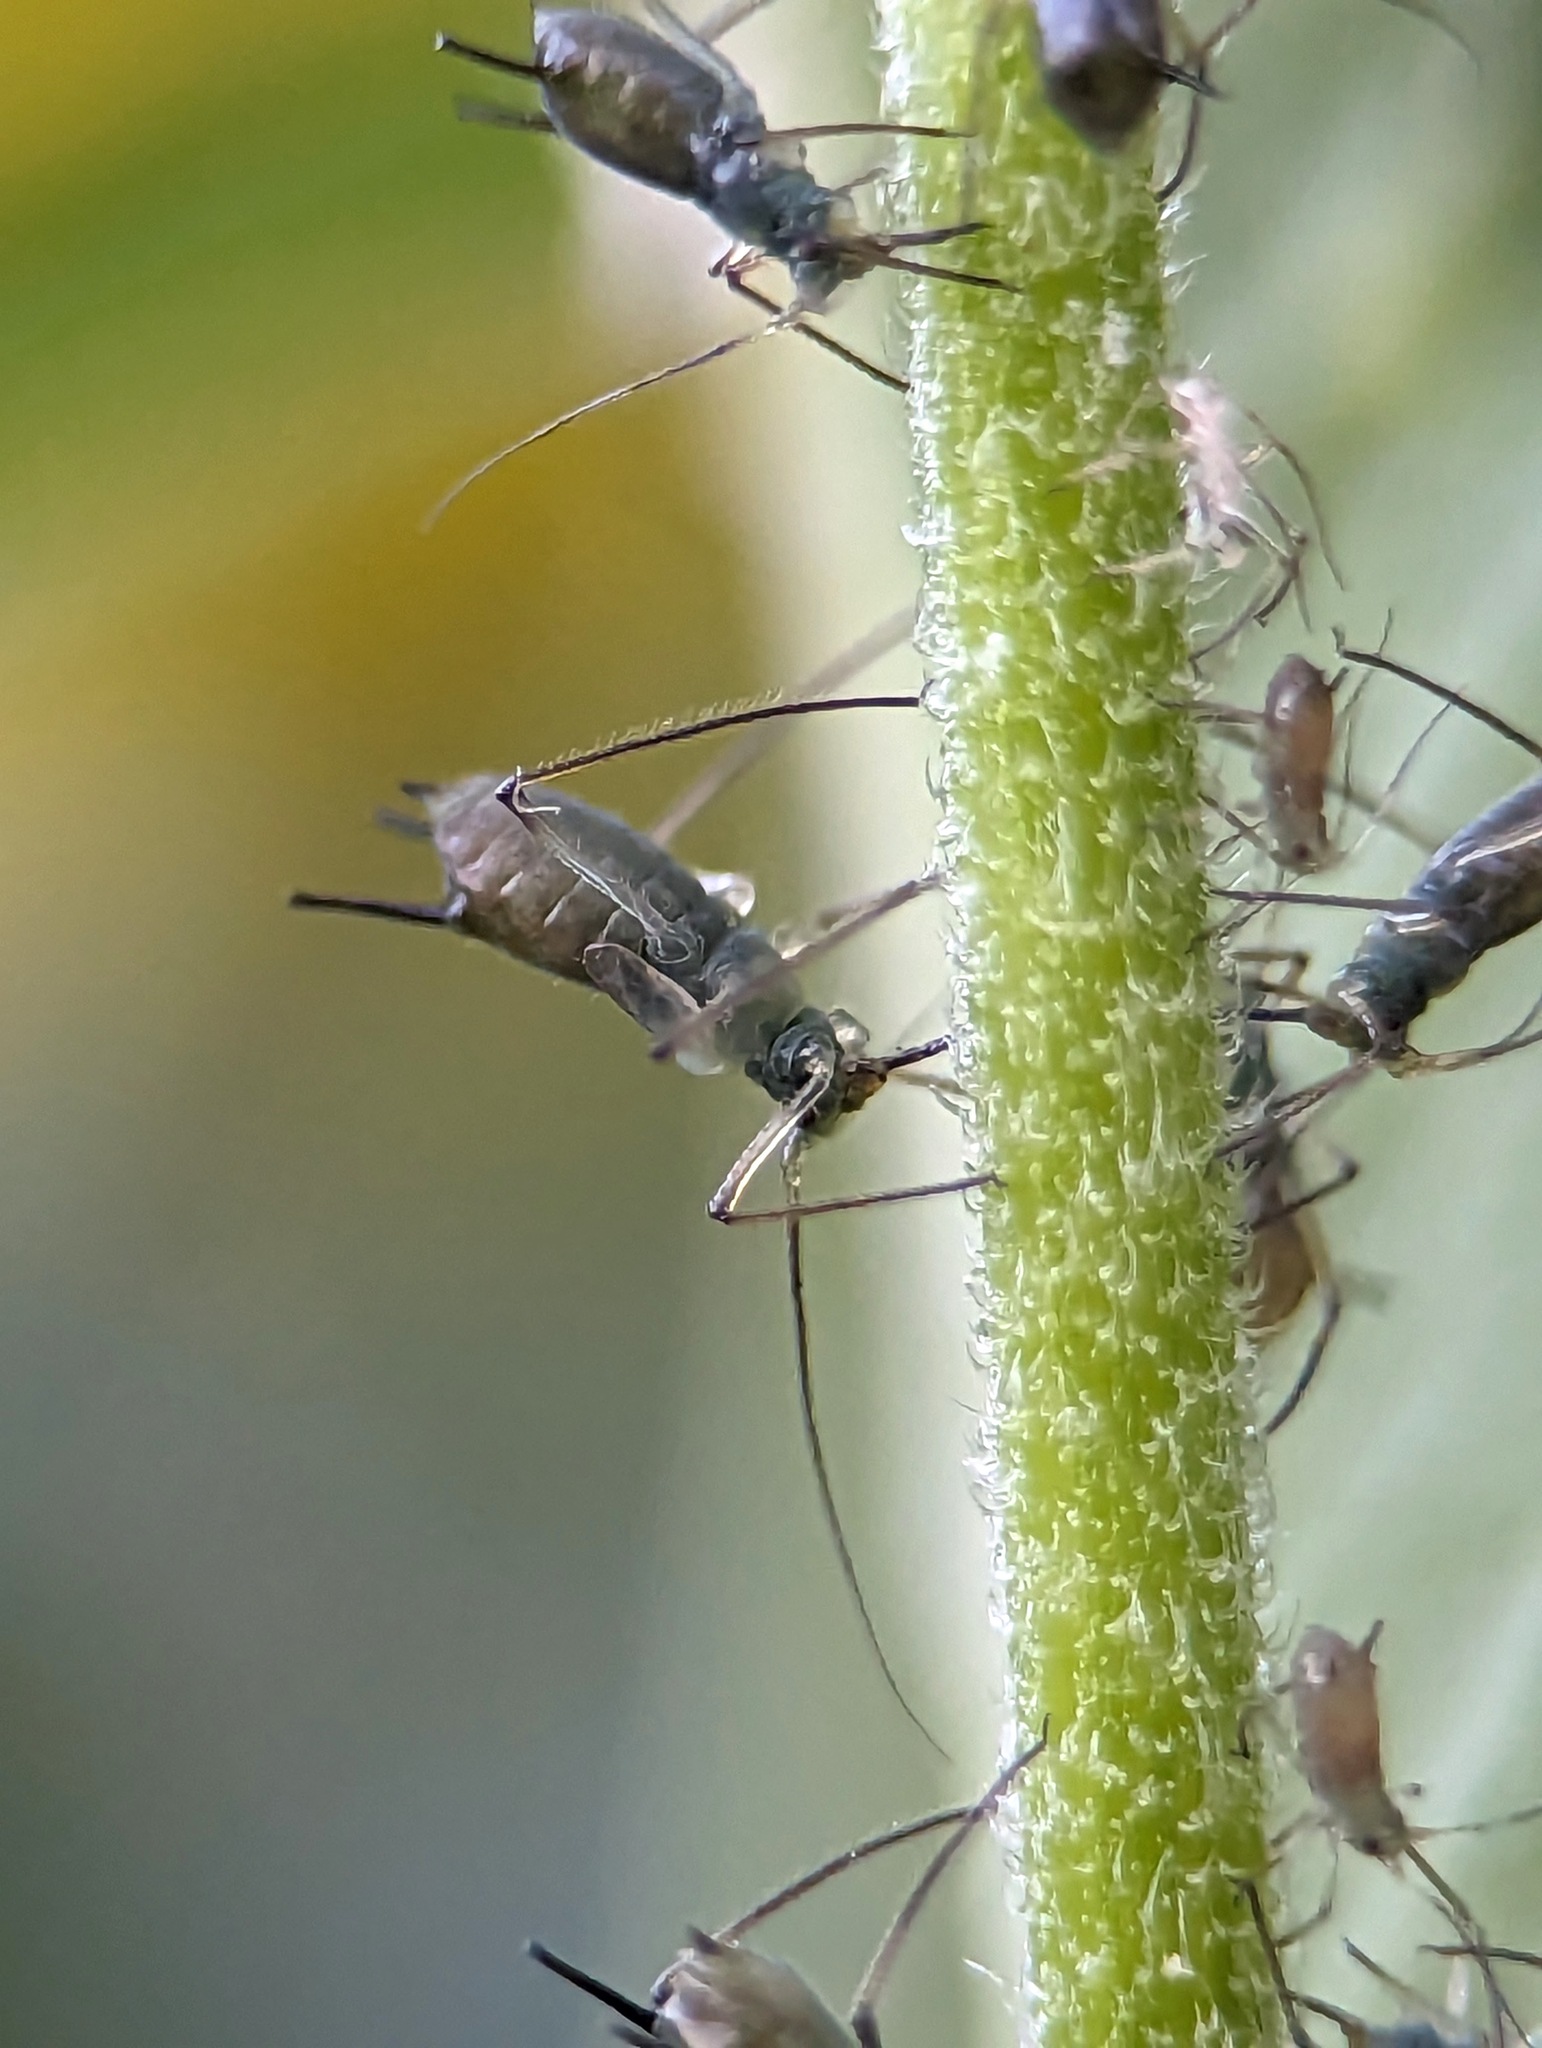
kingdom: Animalia
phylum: Arthropoda
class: Insecta
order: Hemiptera
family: Aphididae
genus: Uroleucon
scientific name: Uroleucon rurale
